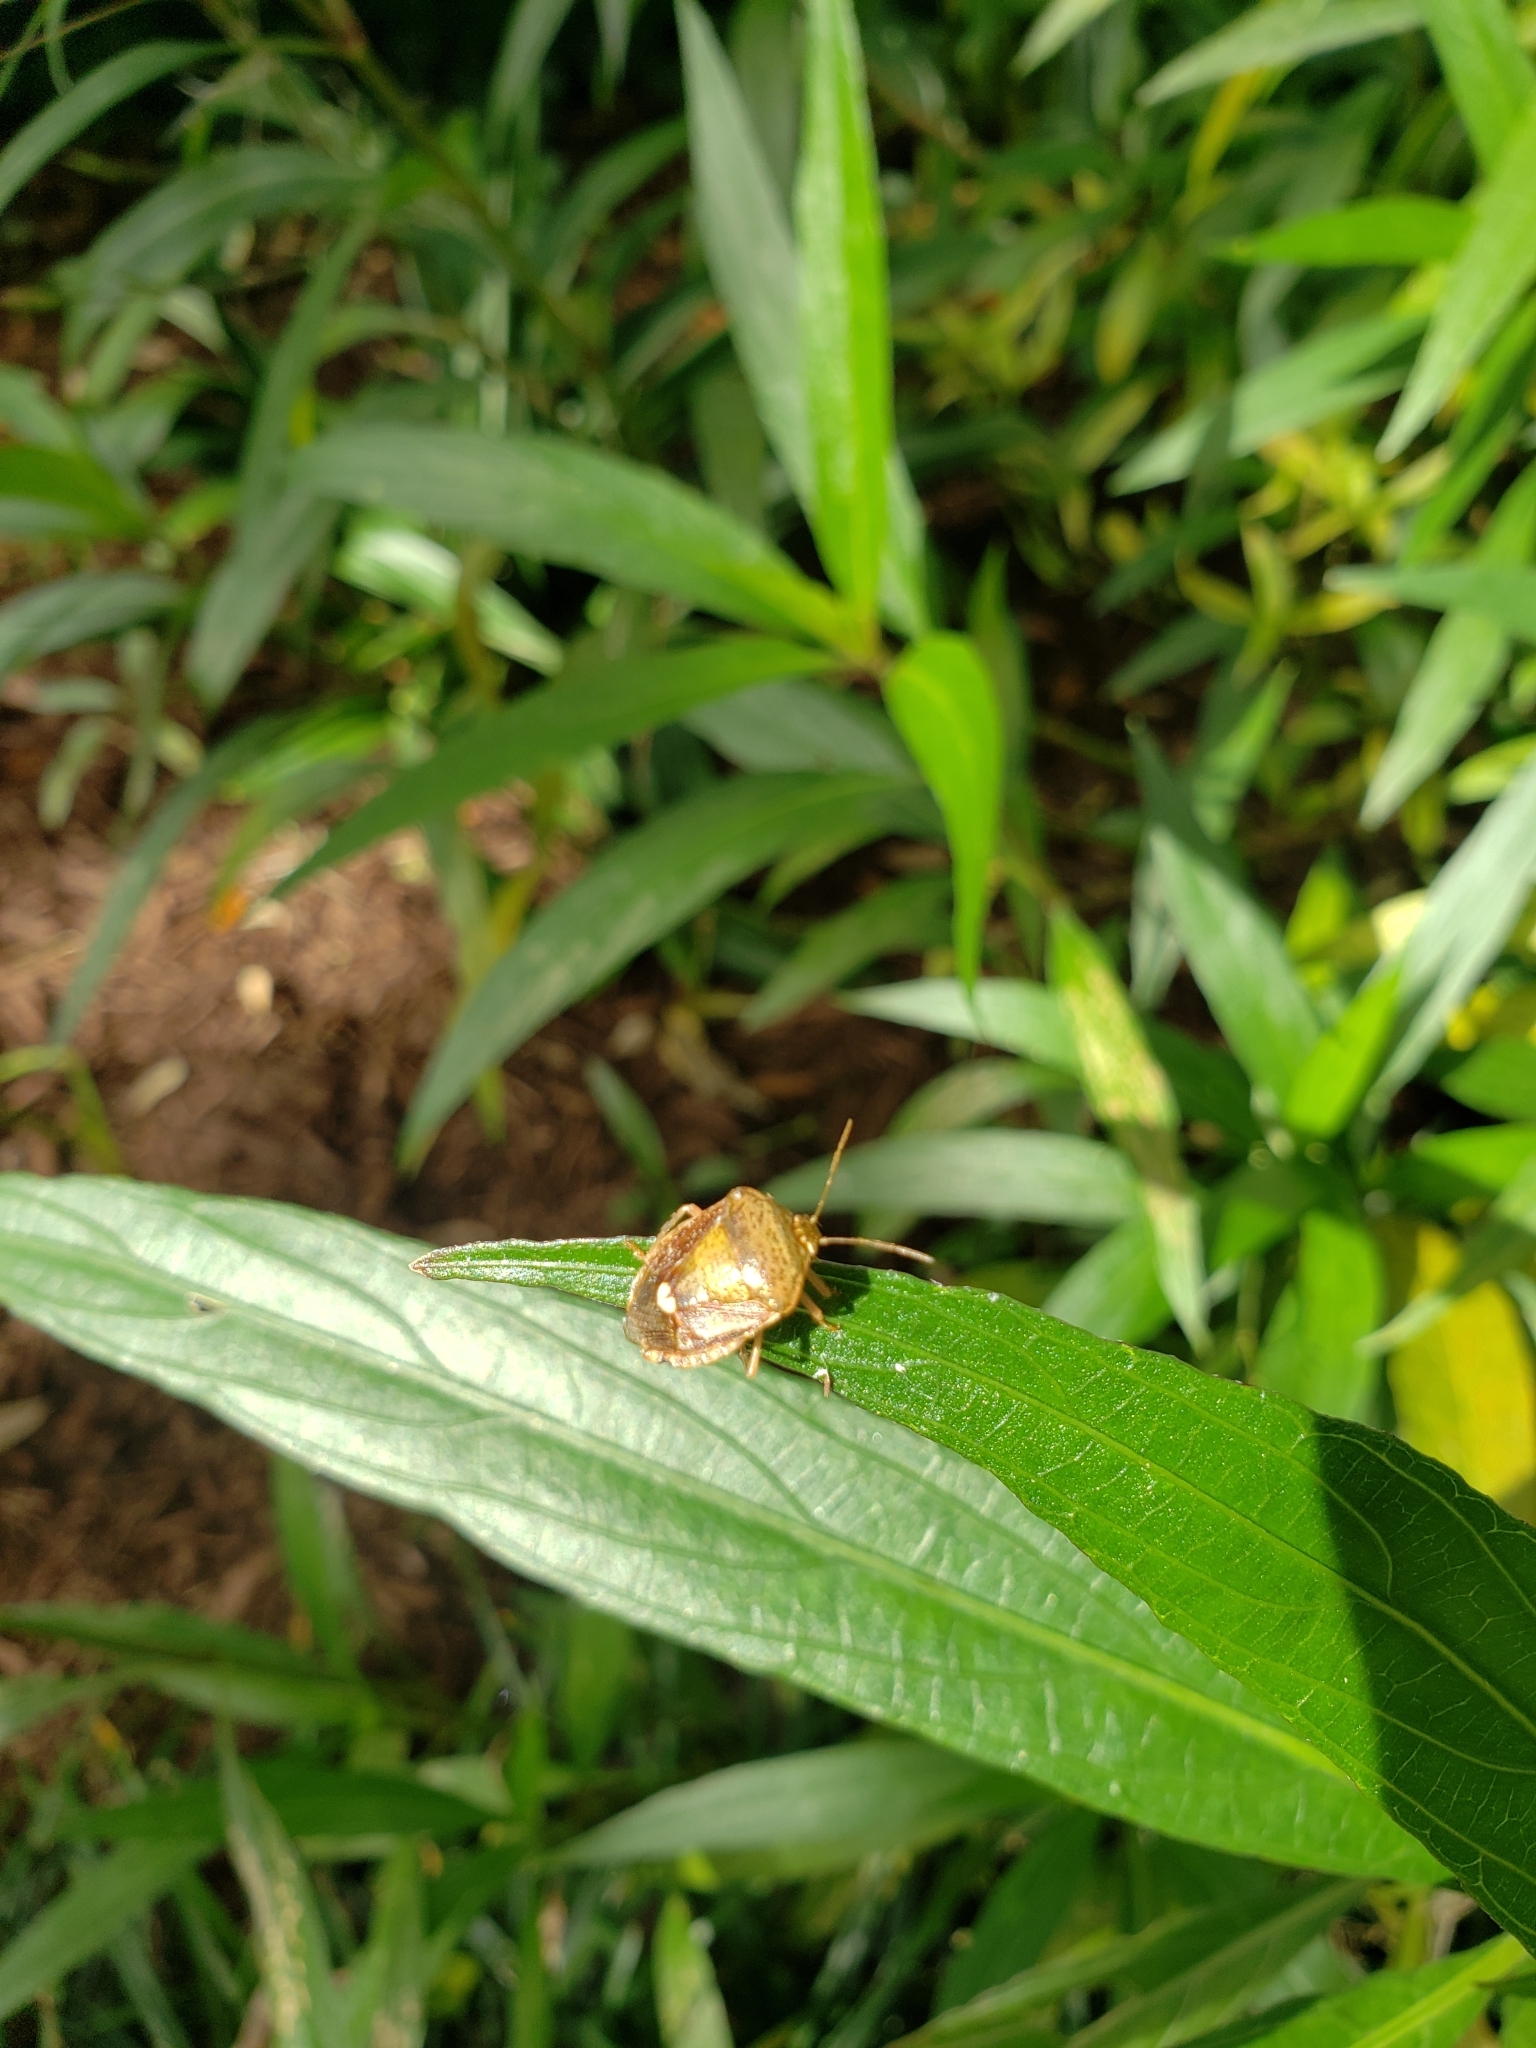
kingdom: Animalia
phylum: Arthropoda
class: Insecta
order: Hemiptera
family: Pentatomidae
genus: Edessa
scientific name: Edessa bifida
